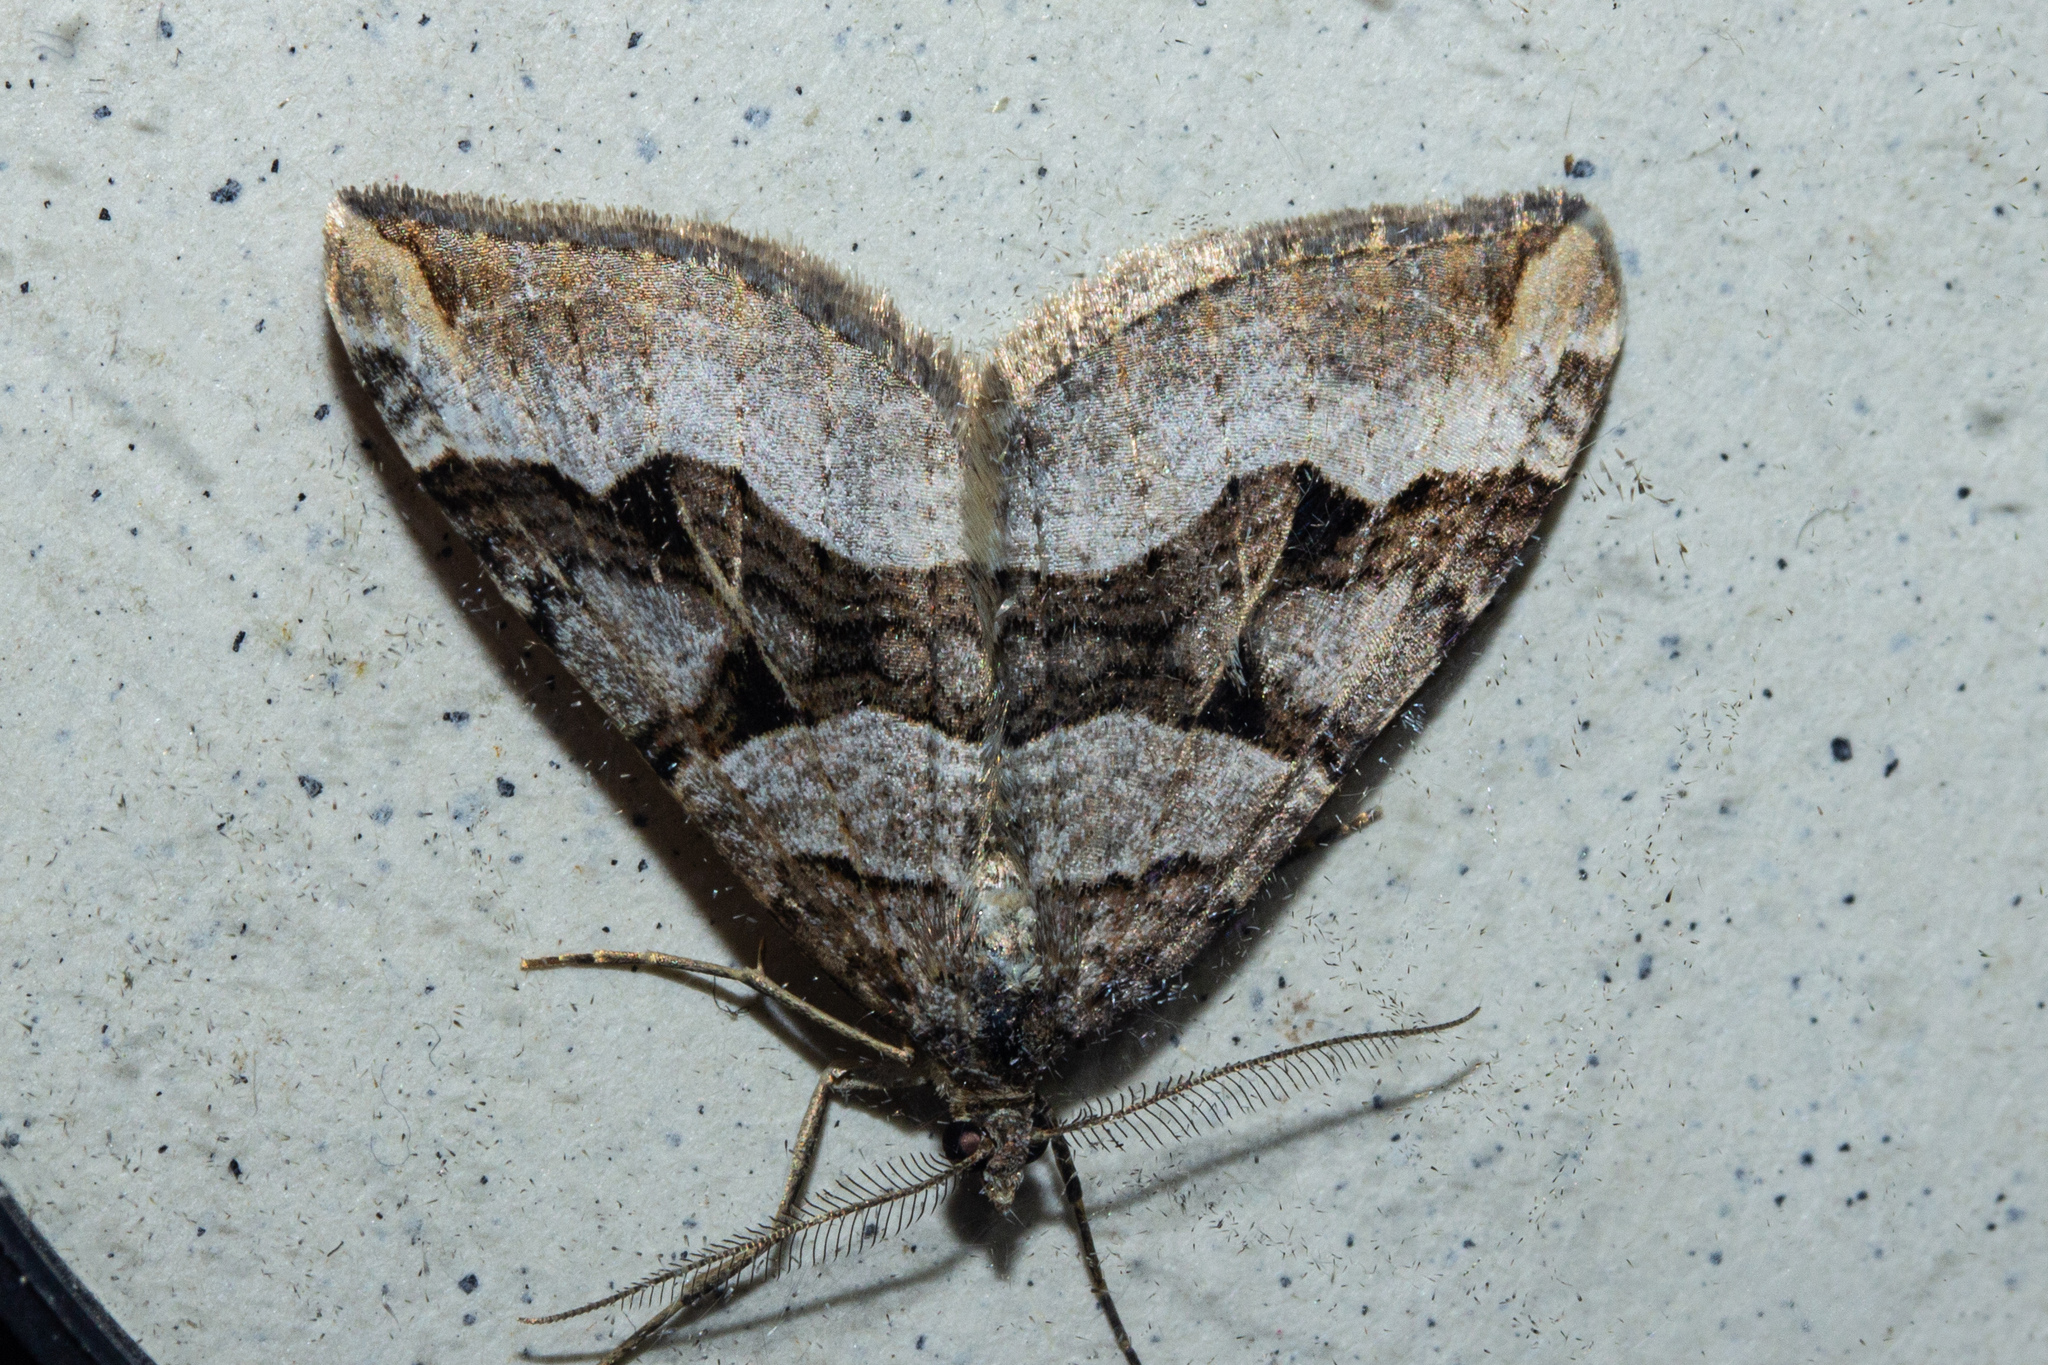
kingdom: Animalia
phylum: Arthropoda
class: Insecta
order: Lepidoptera
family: Geometridae
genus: Xanthorhoe
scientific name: Xanthorhoe semifissata
